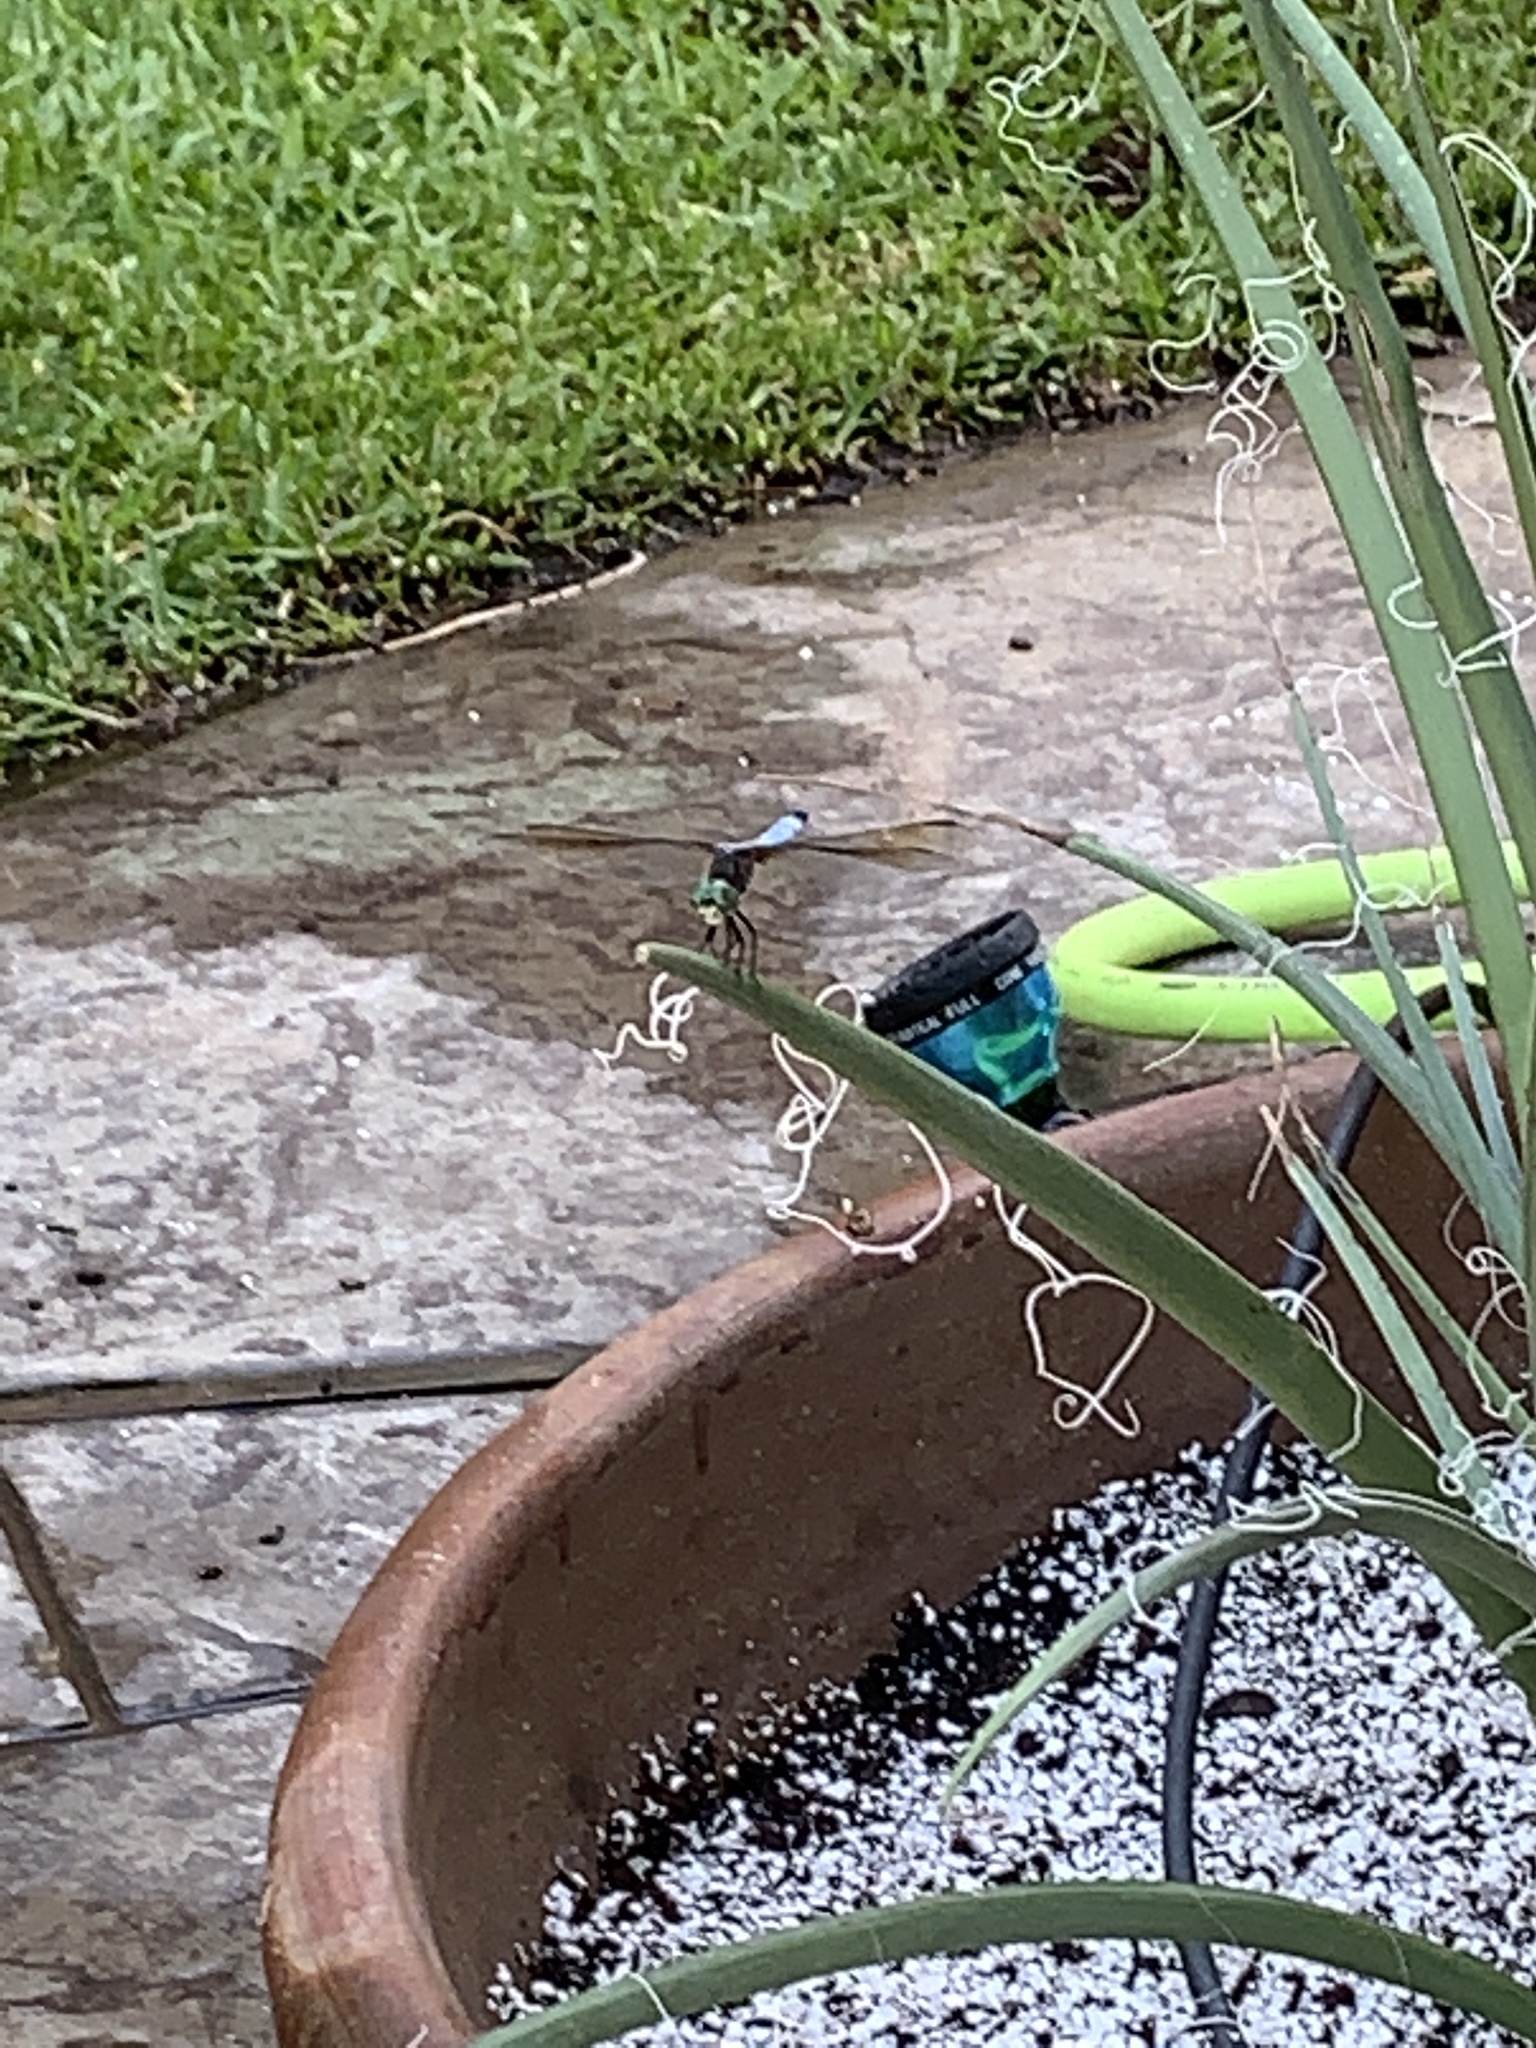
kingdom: Animalia
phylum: Arthropoda
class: Insecta
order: Odonata
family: Libellulidae
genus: Pachydiplax
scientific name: Pachydiplax longipennis
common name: Blue dasher
